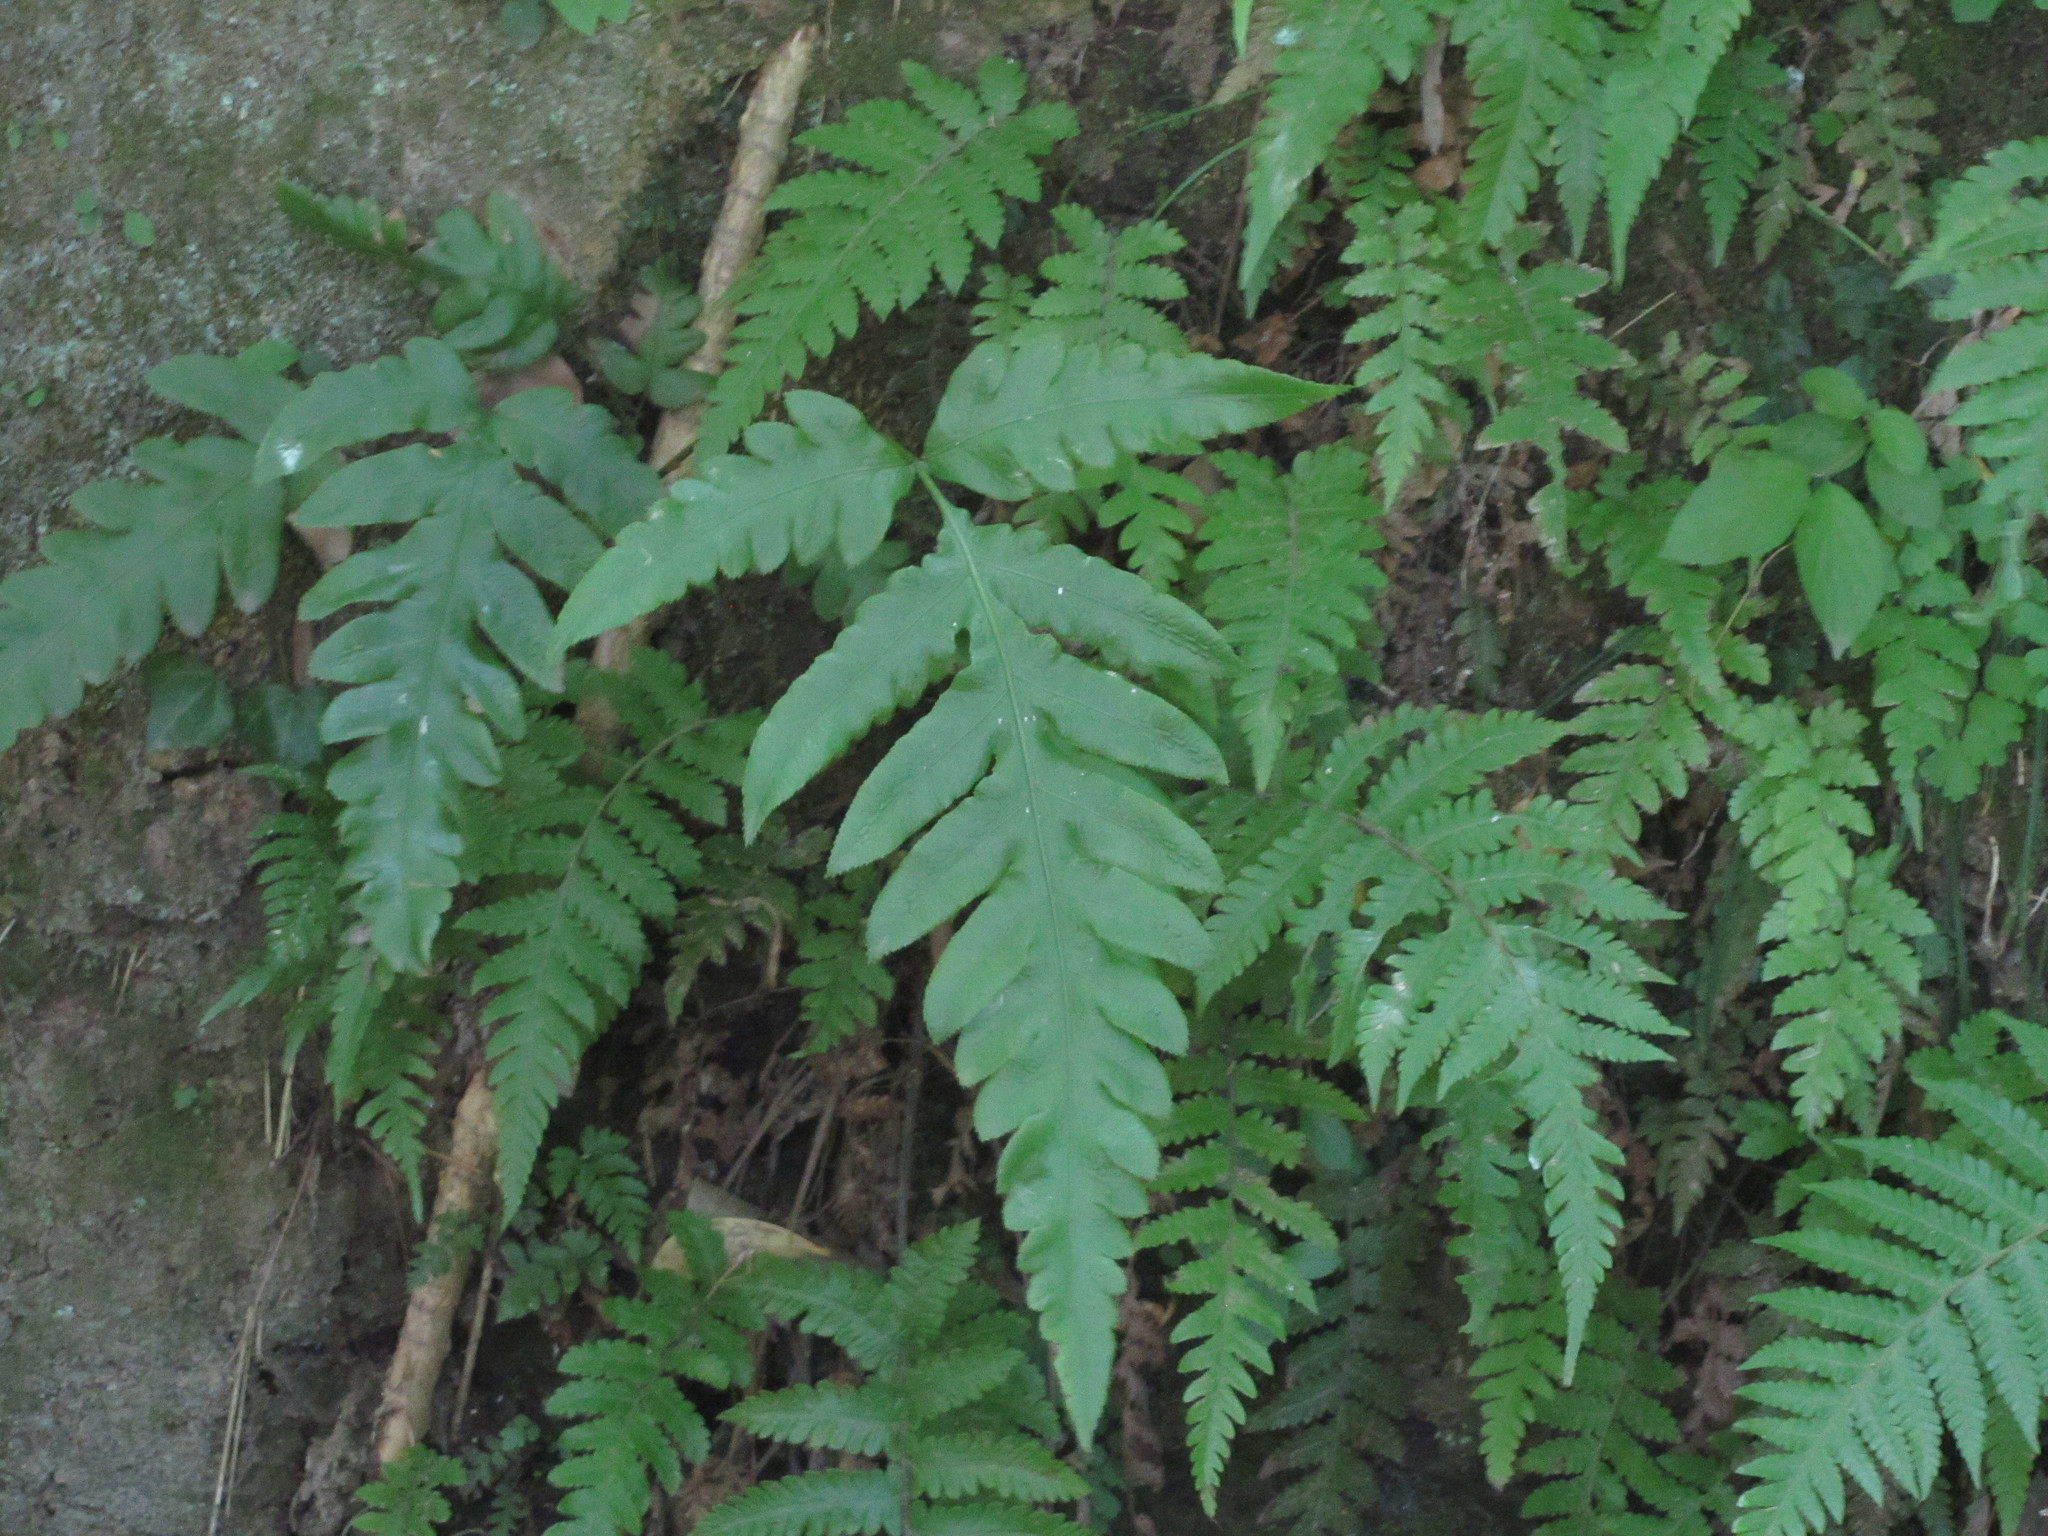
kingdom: Plantae
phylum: Tracheophyta
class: Polypodiopsida
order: Polypodiales
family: Blechnaceae
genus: Woodwardia
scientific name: Woodwardia orientalis
